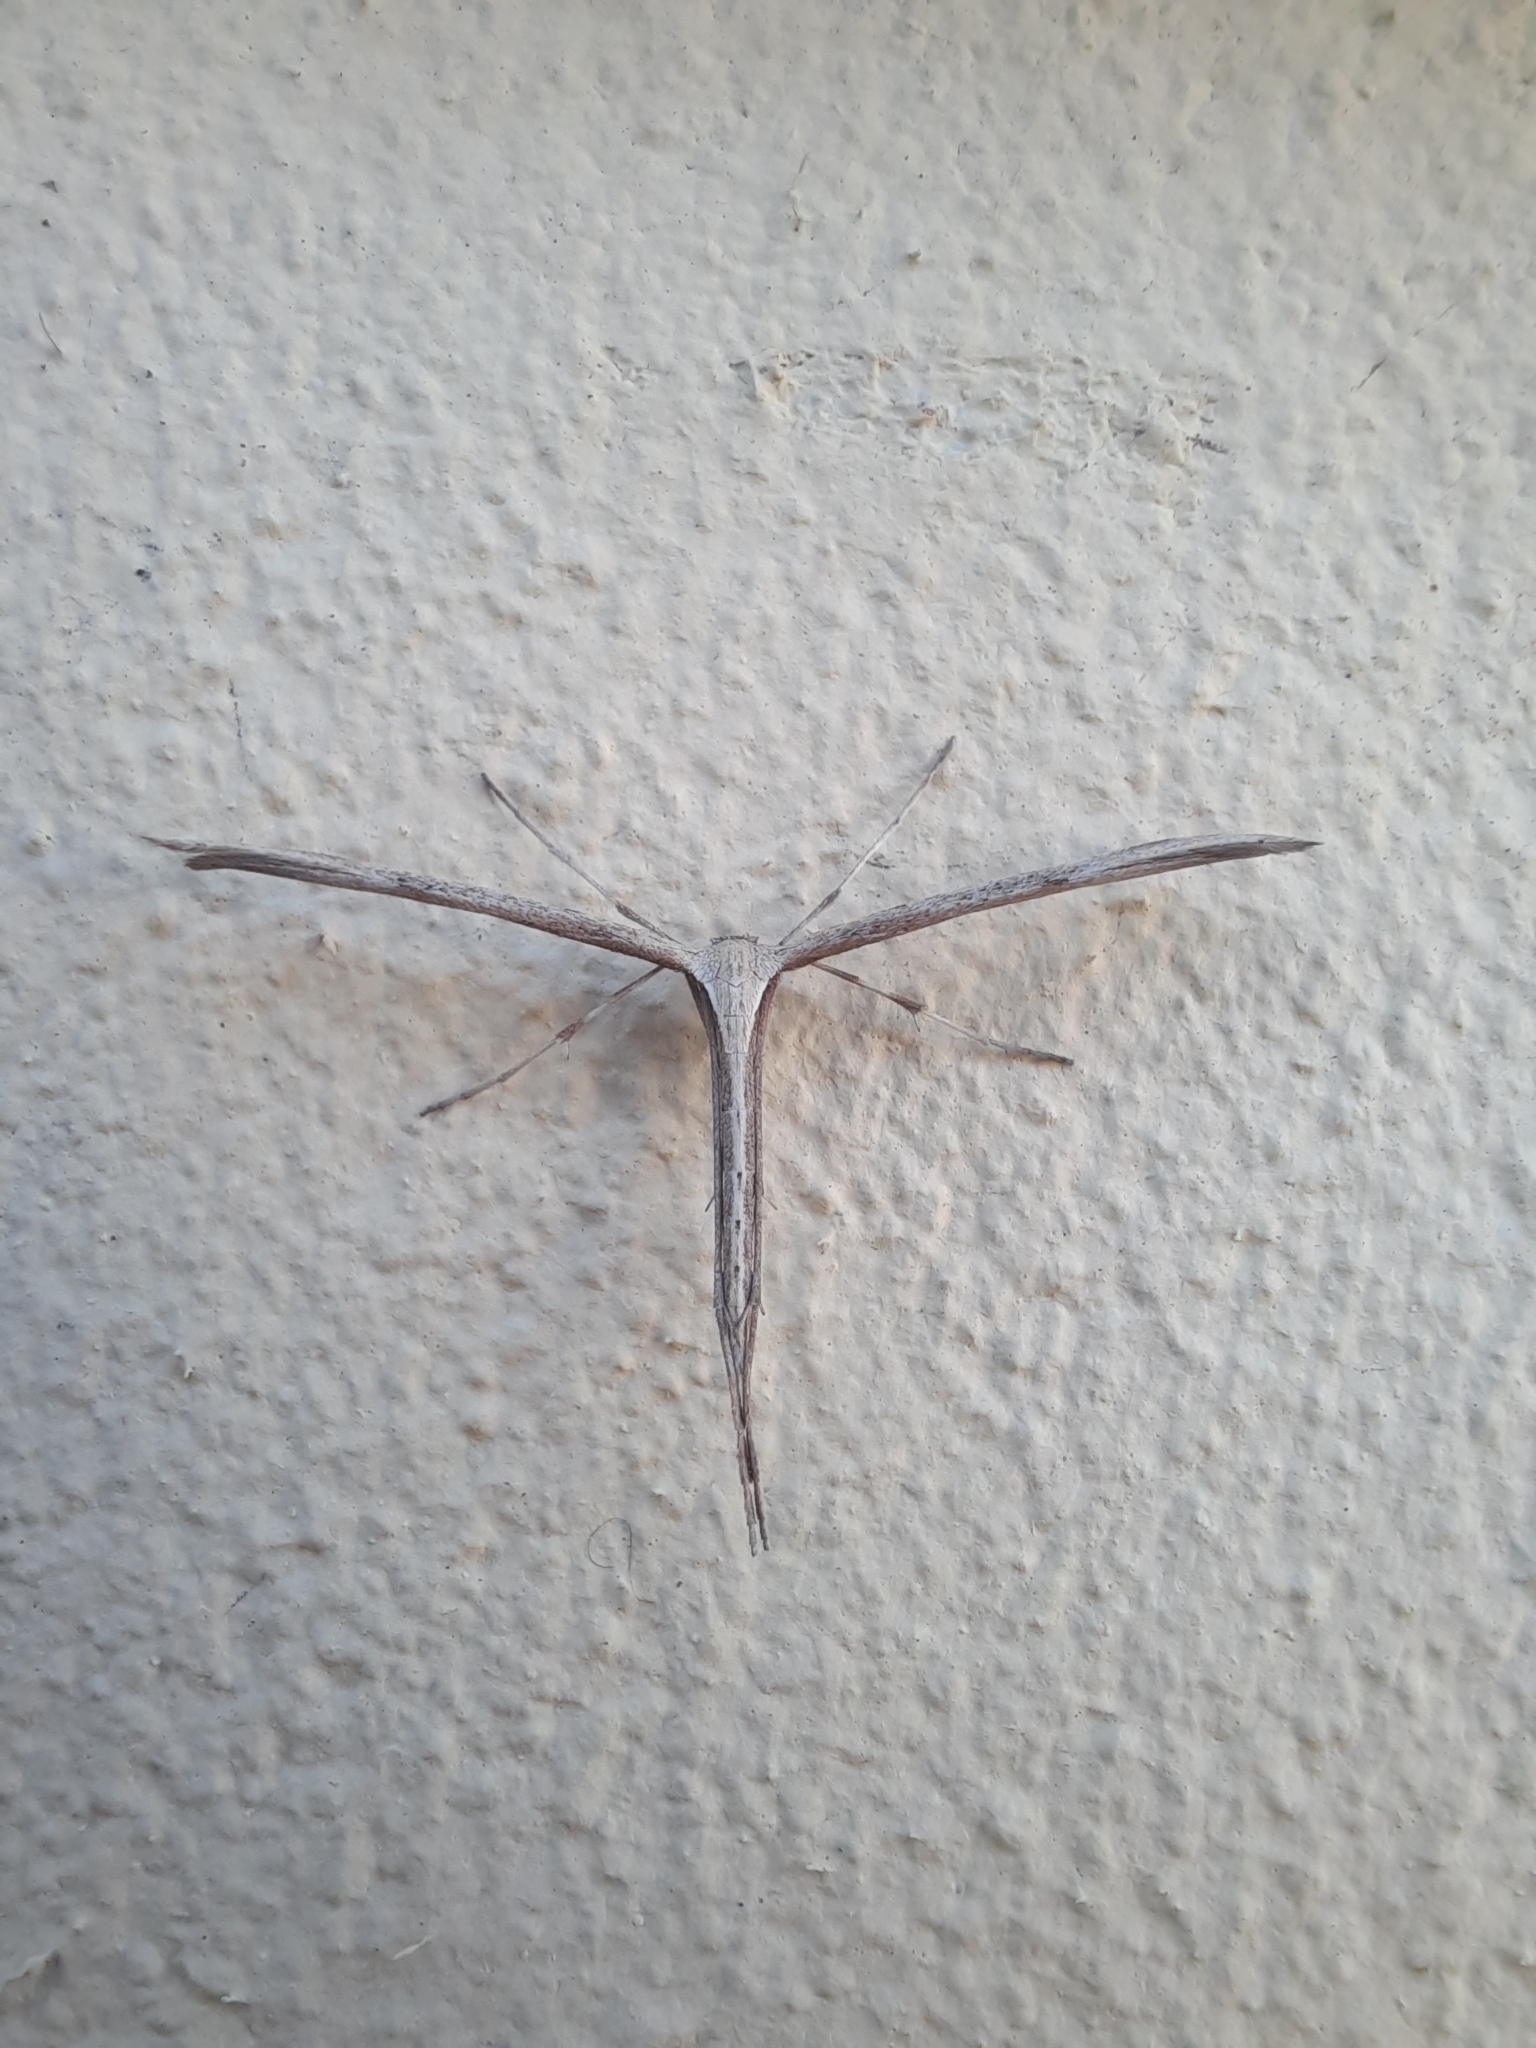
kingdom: Animalia
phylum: Arthropoda
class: Insecta
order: Lepidoptera
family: Pterophoridae
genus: Emmelina
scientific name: Emmelina monodactyla
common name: Common plume
